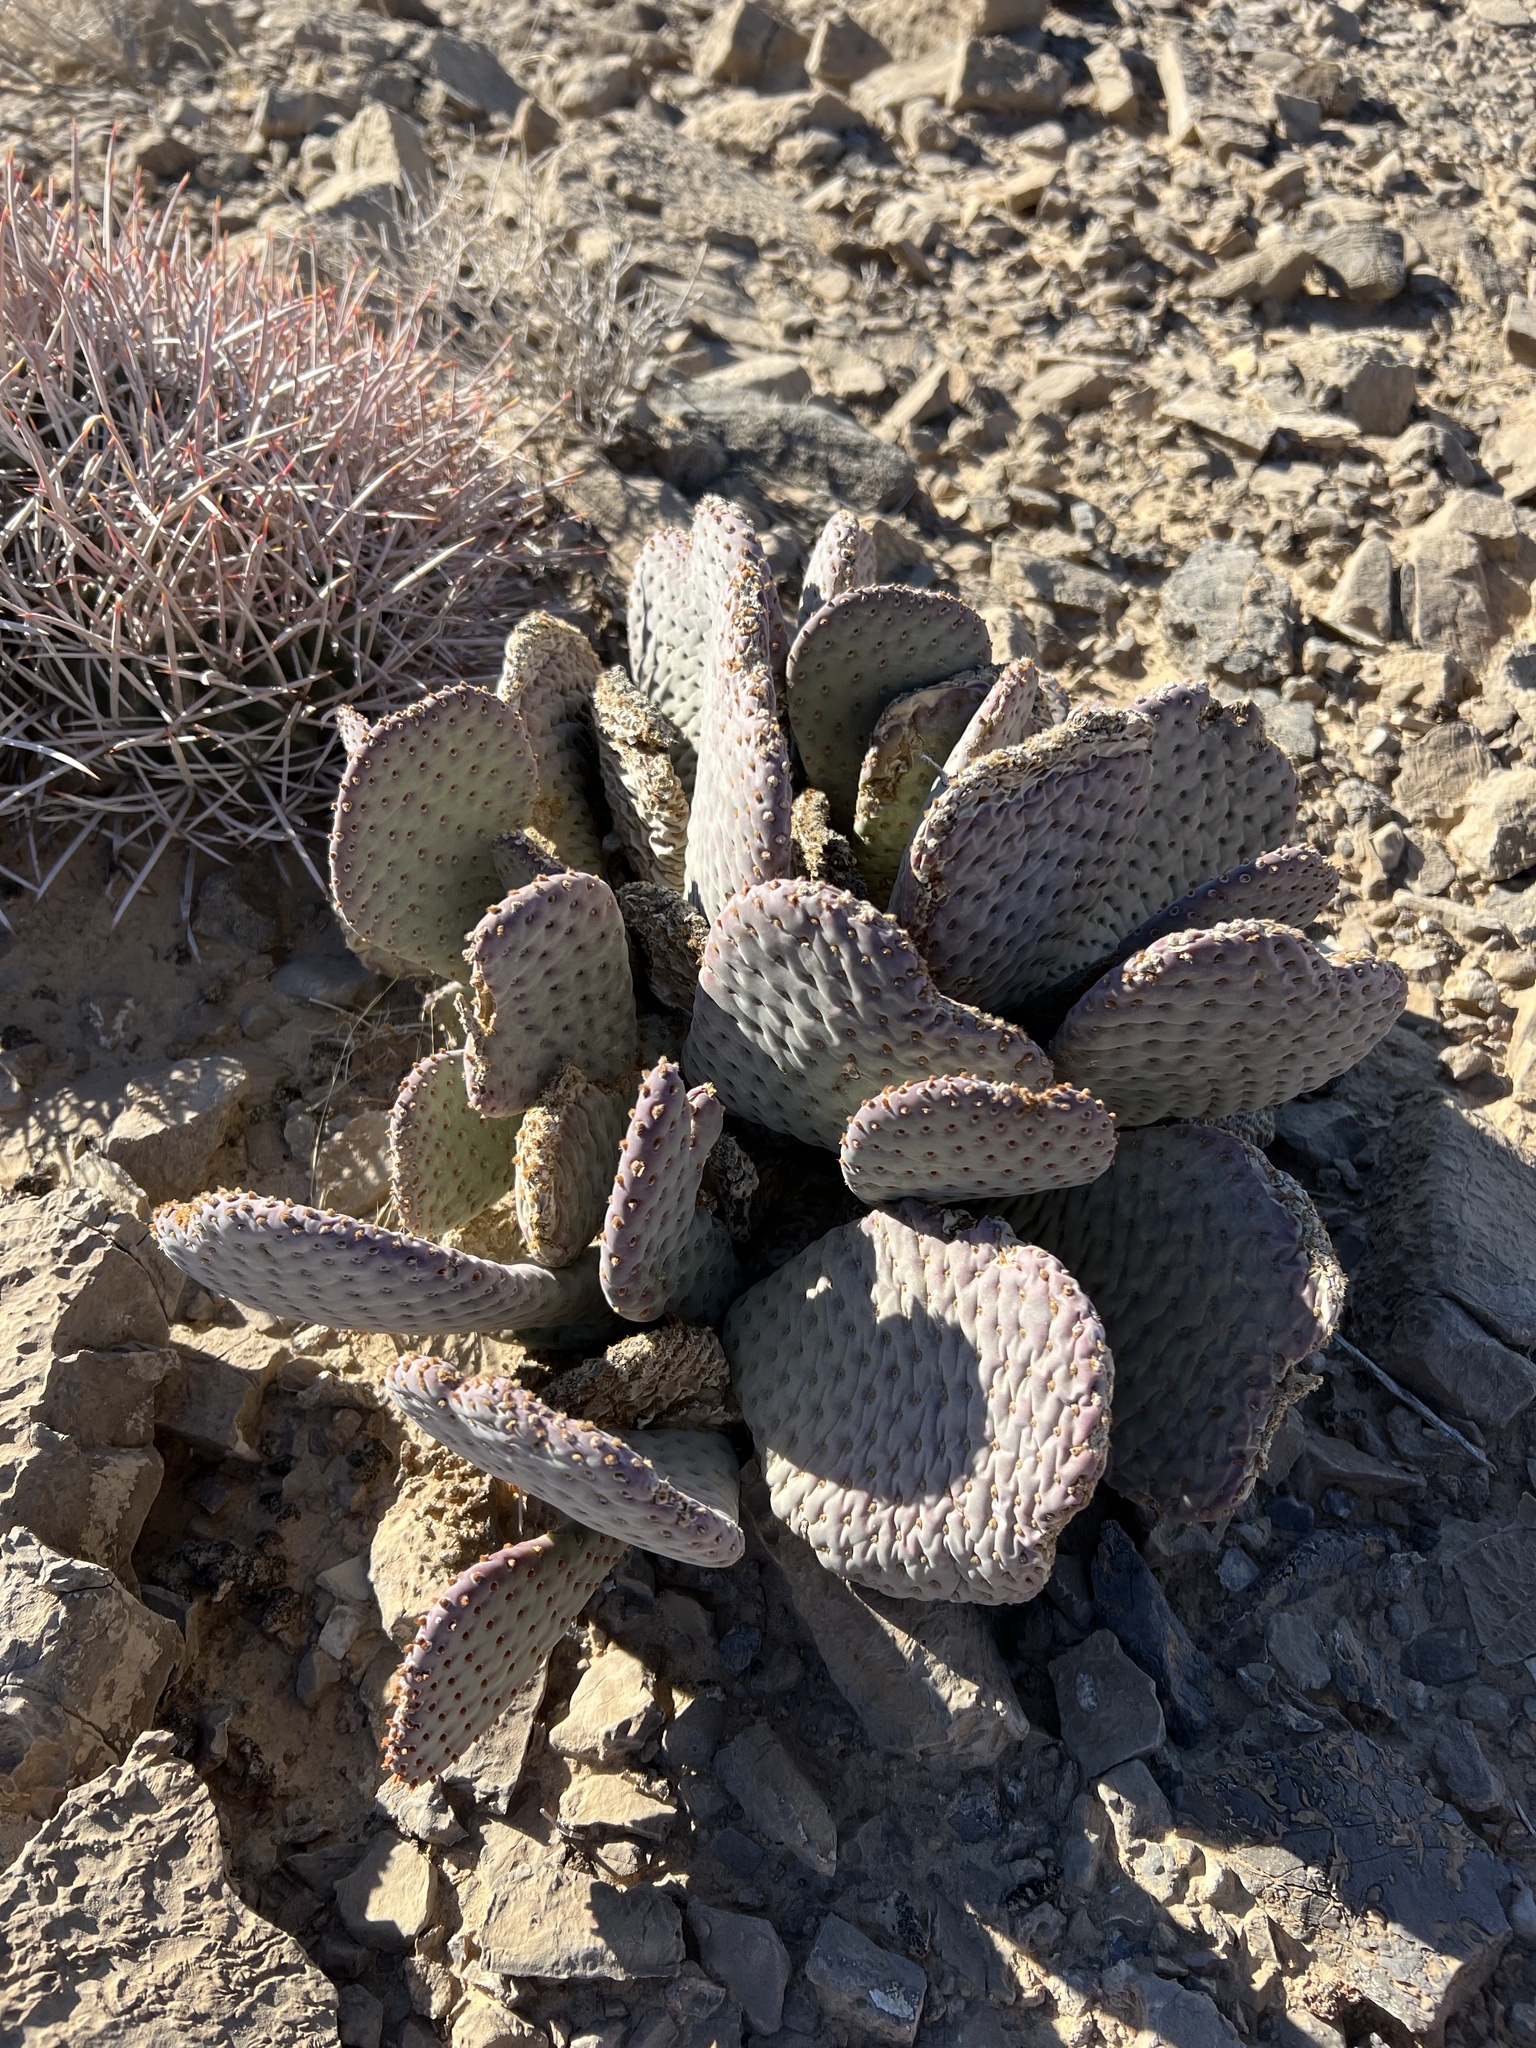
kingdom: Plantae
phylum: Tracheophyta
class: Magnoliopsida
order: Caryophyllales
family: Cactaceae
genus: Opuntia
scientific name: Opuntia basilaris
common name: Beavertail prickly-pear
